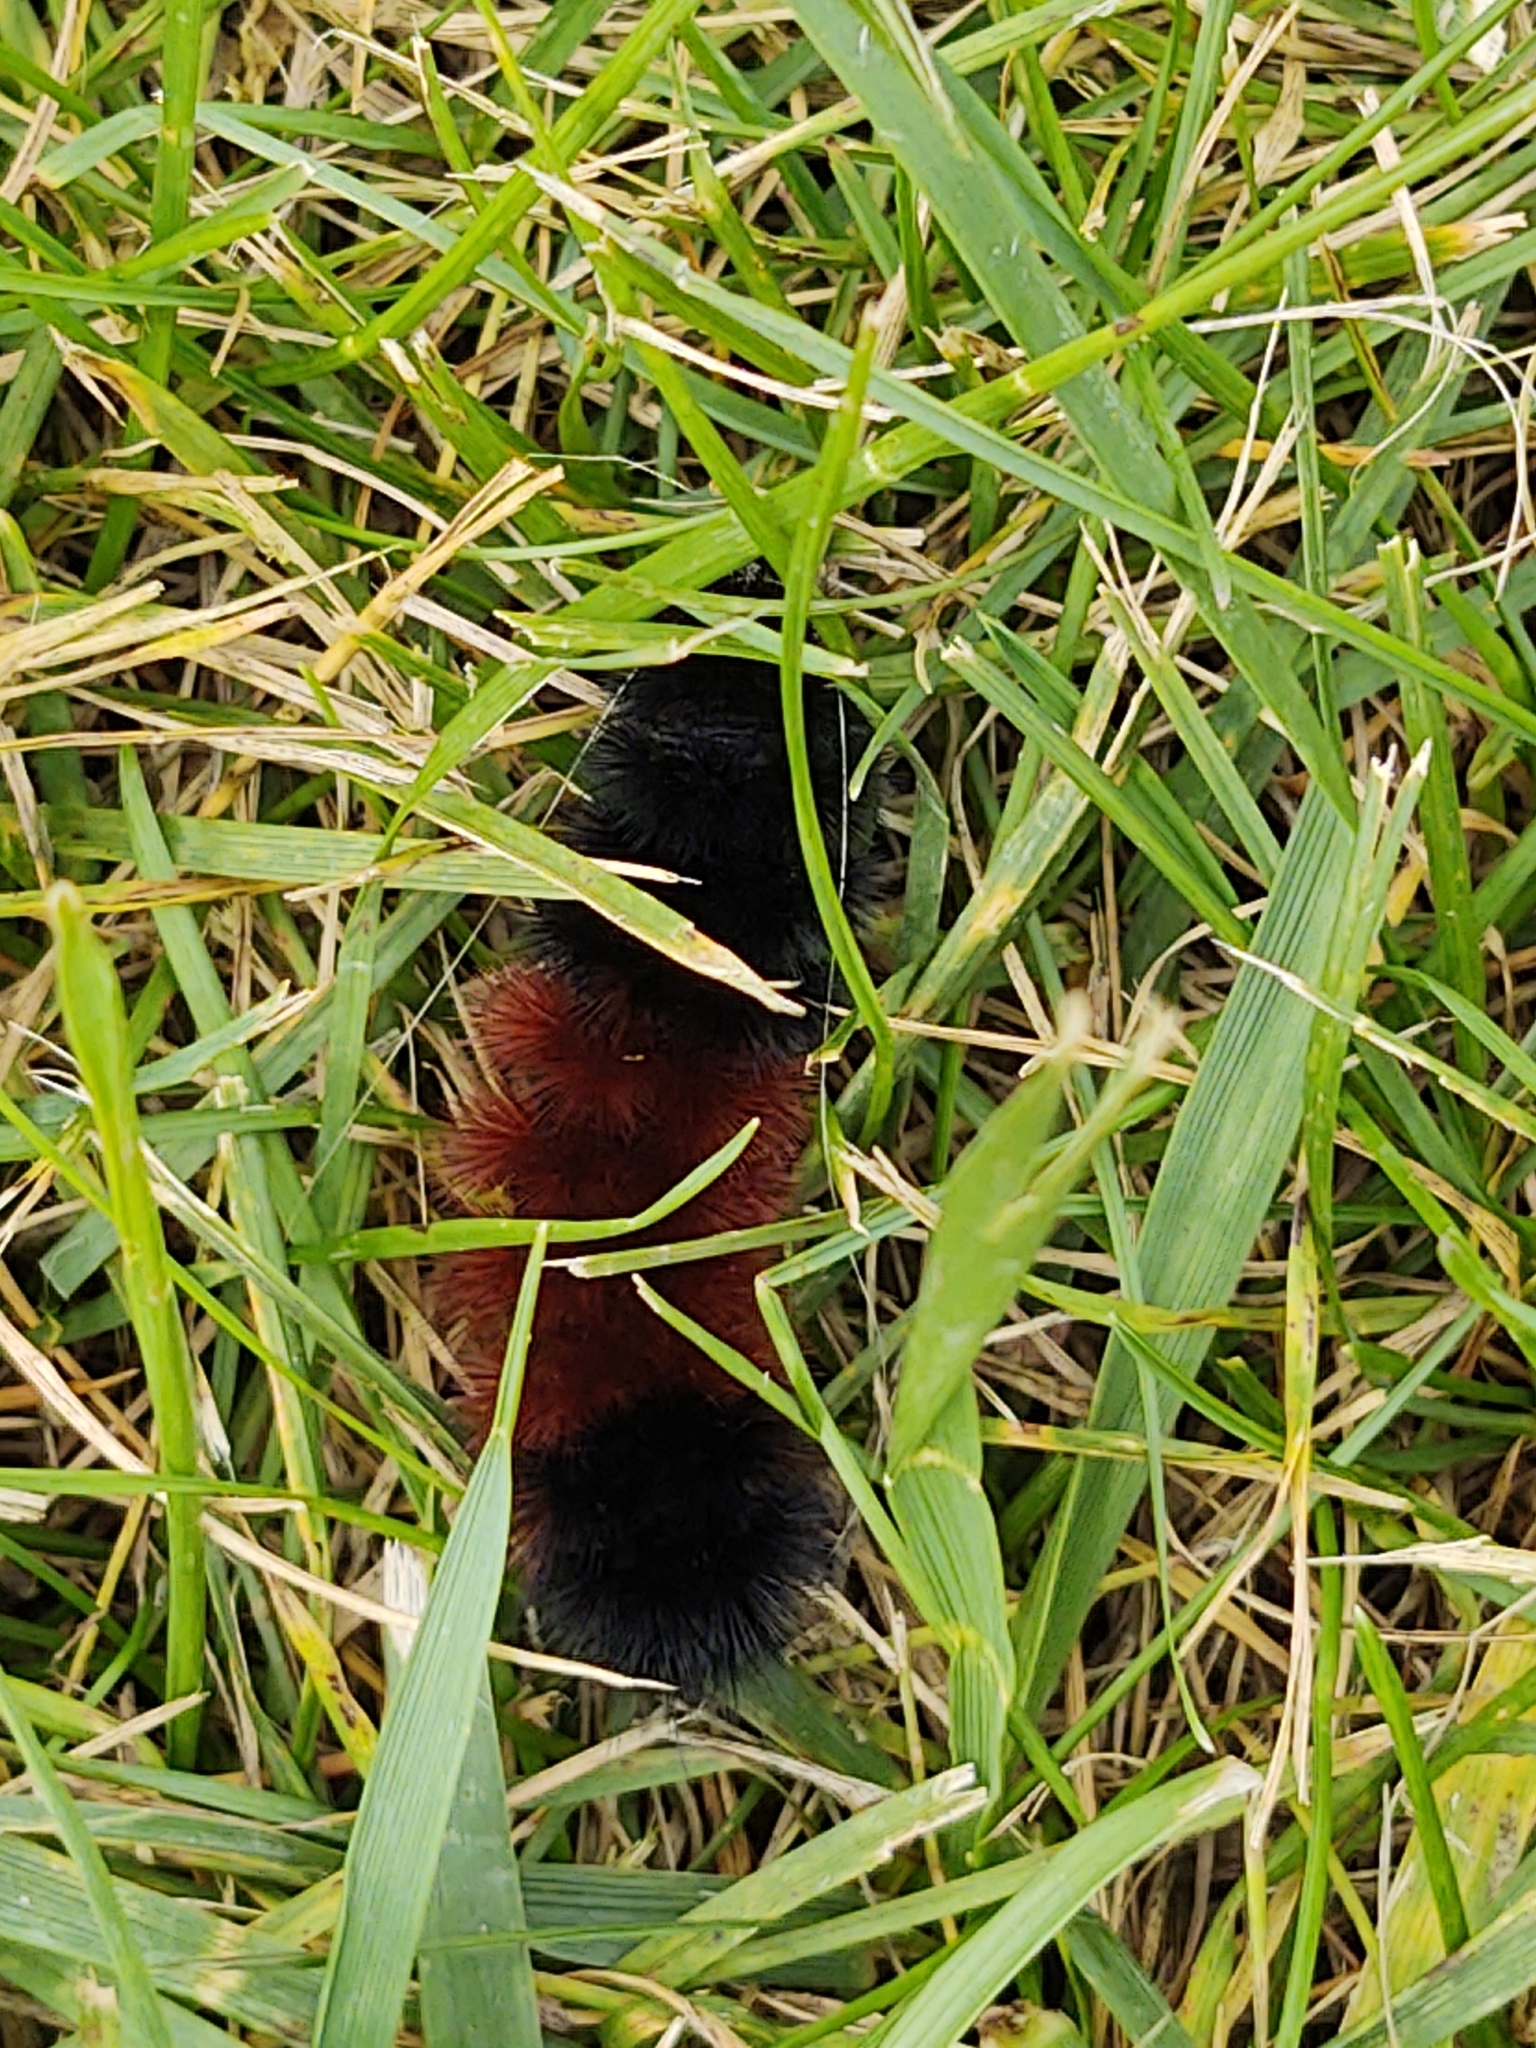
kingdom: Animalia
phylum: Arthropoda
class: Insecta
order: Lepidoptera
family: Erebidae
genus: Pyrrharctia
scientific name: Pyrrharctia isabella
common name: Isabella tiger moth
